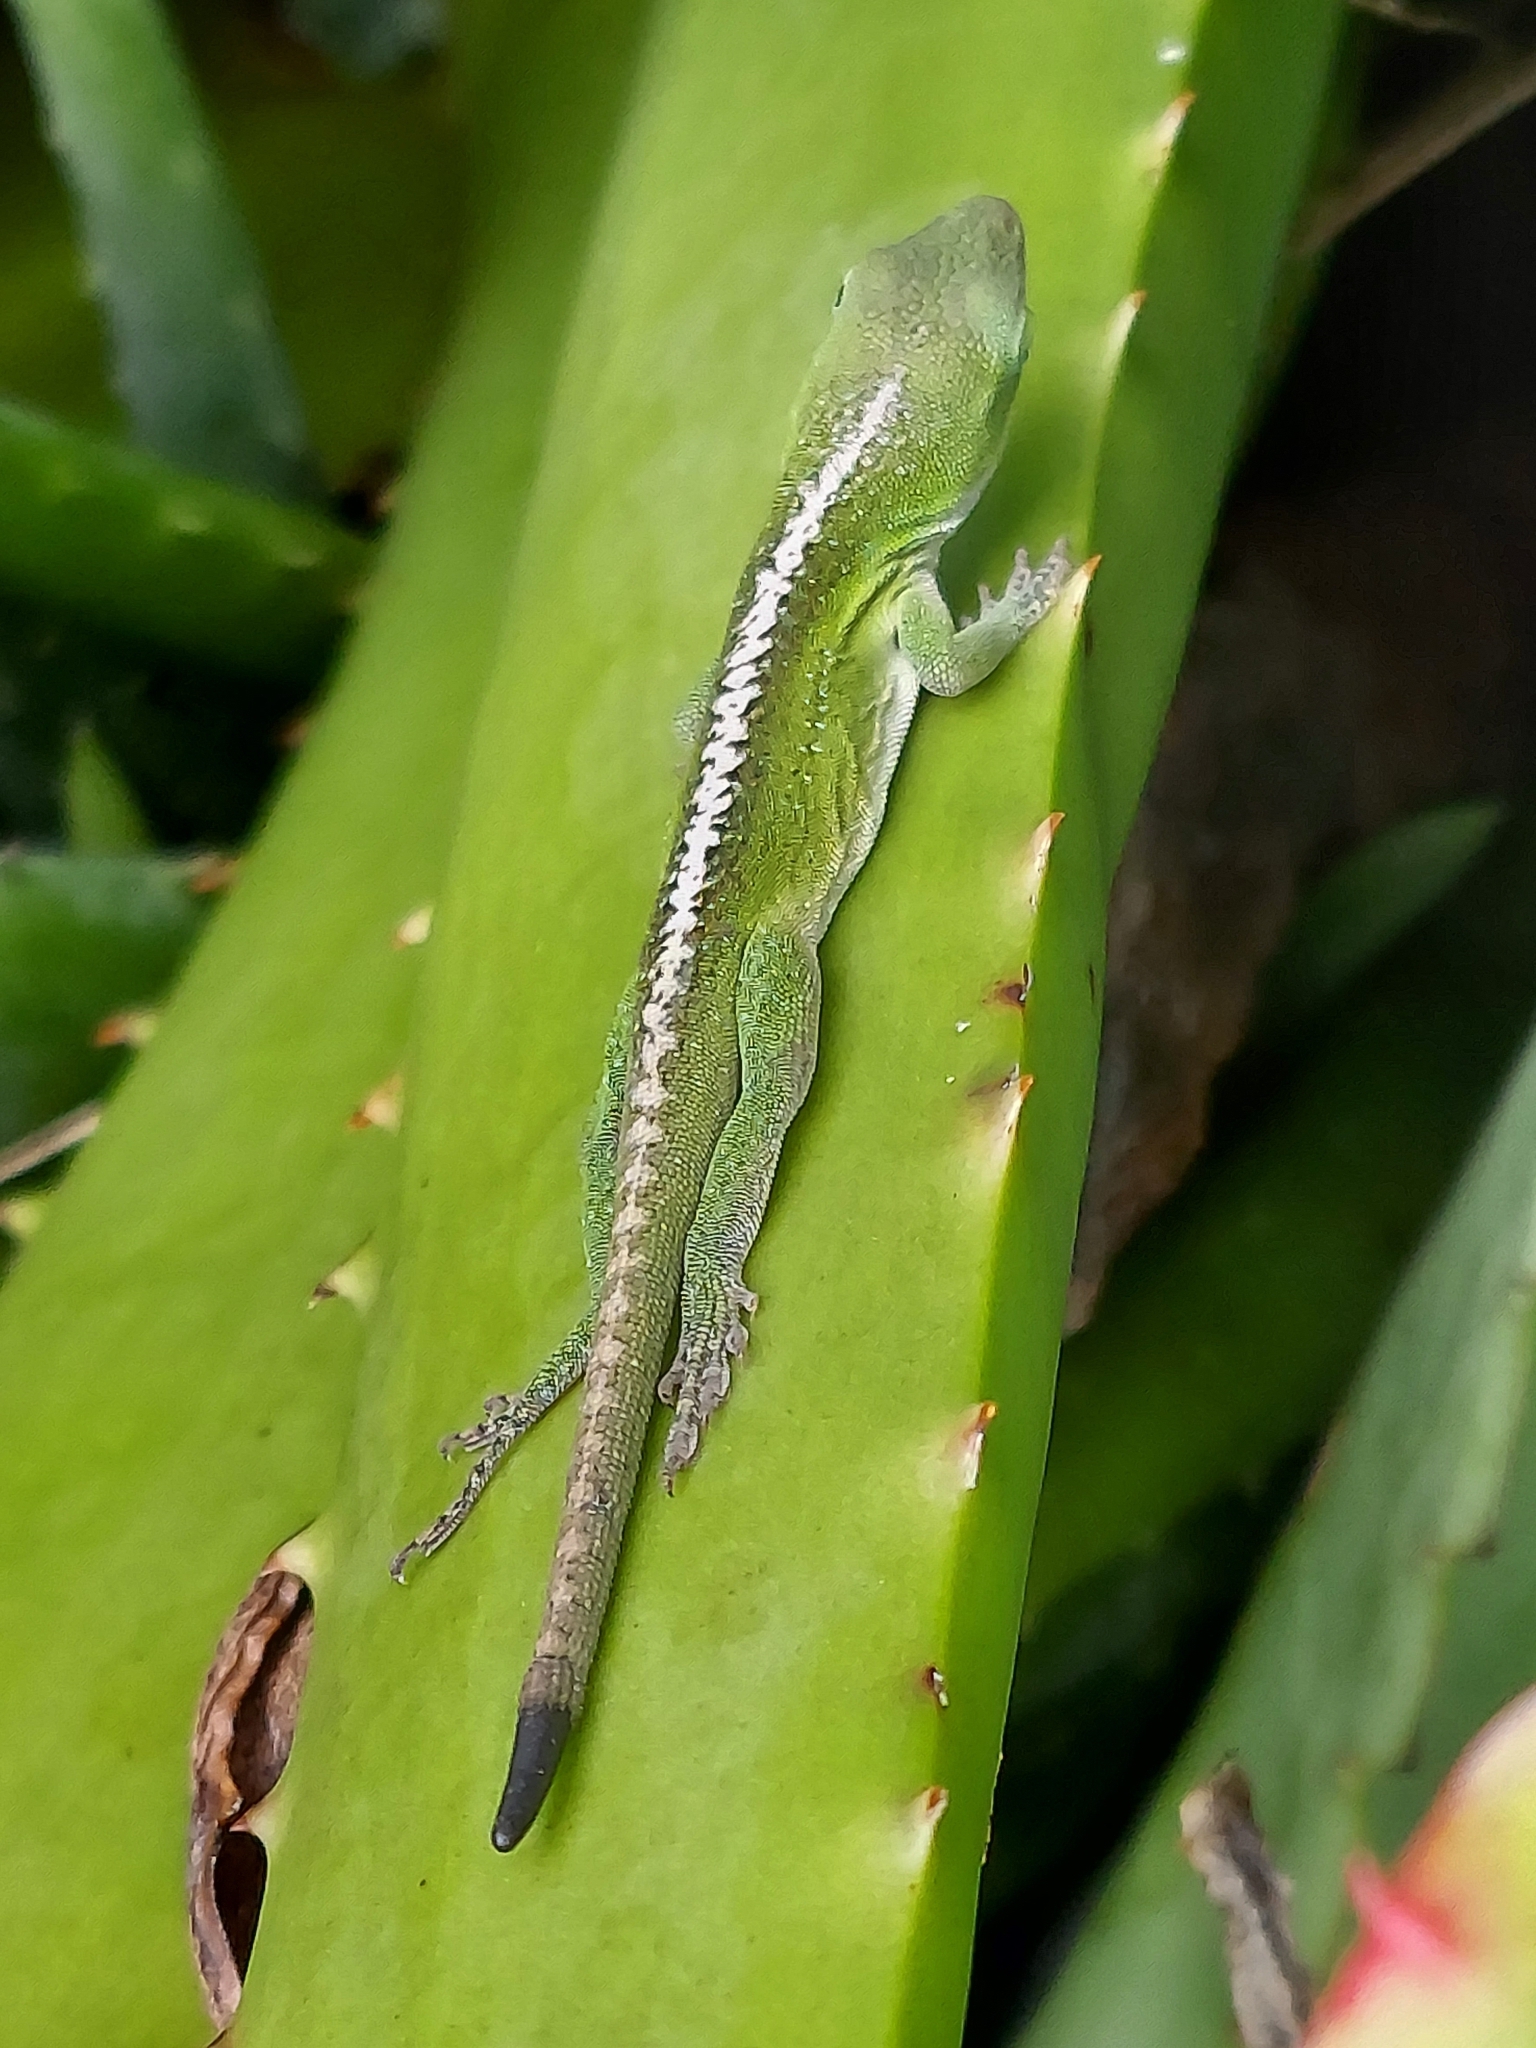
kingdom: Animalia
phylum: Chordata
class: Squamata
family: Dactyloidae
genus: Anolis
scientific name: Anolis carolinensis
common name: Green anole
